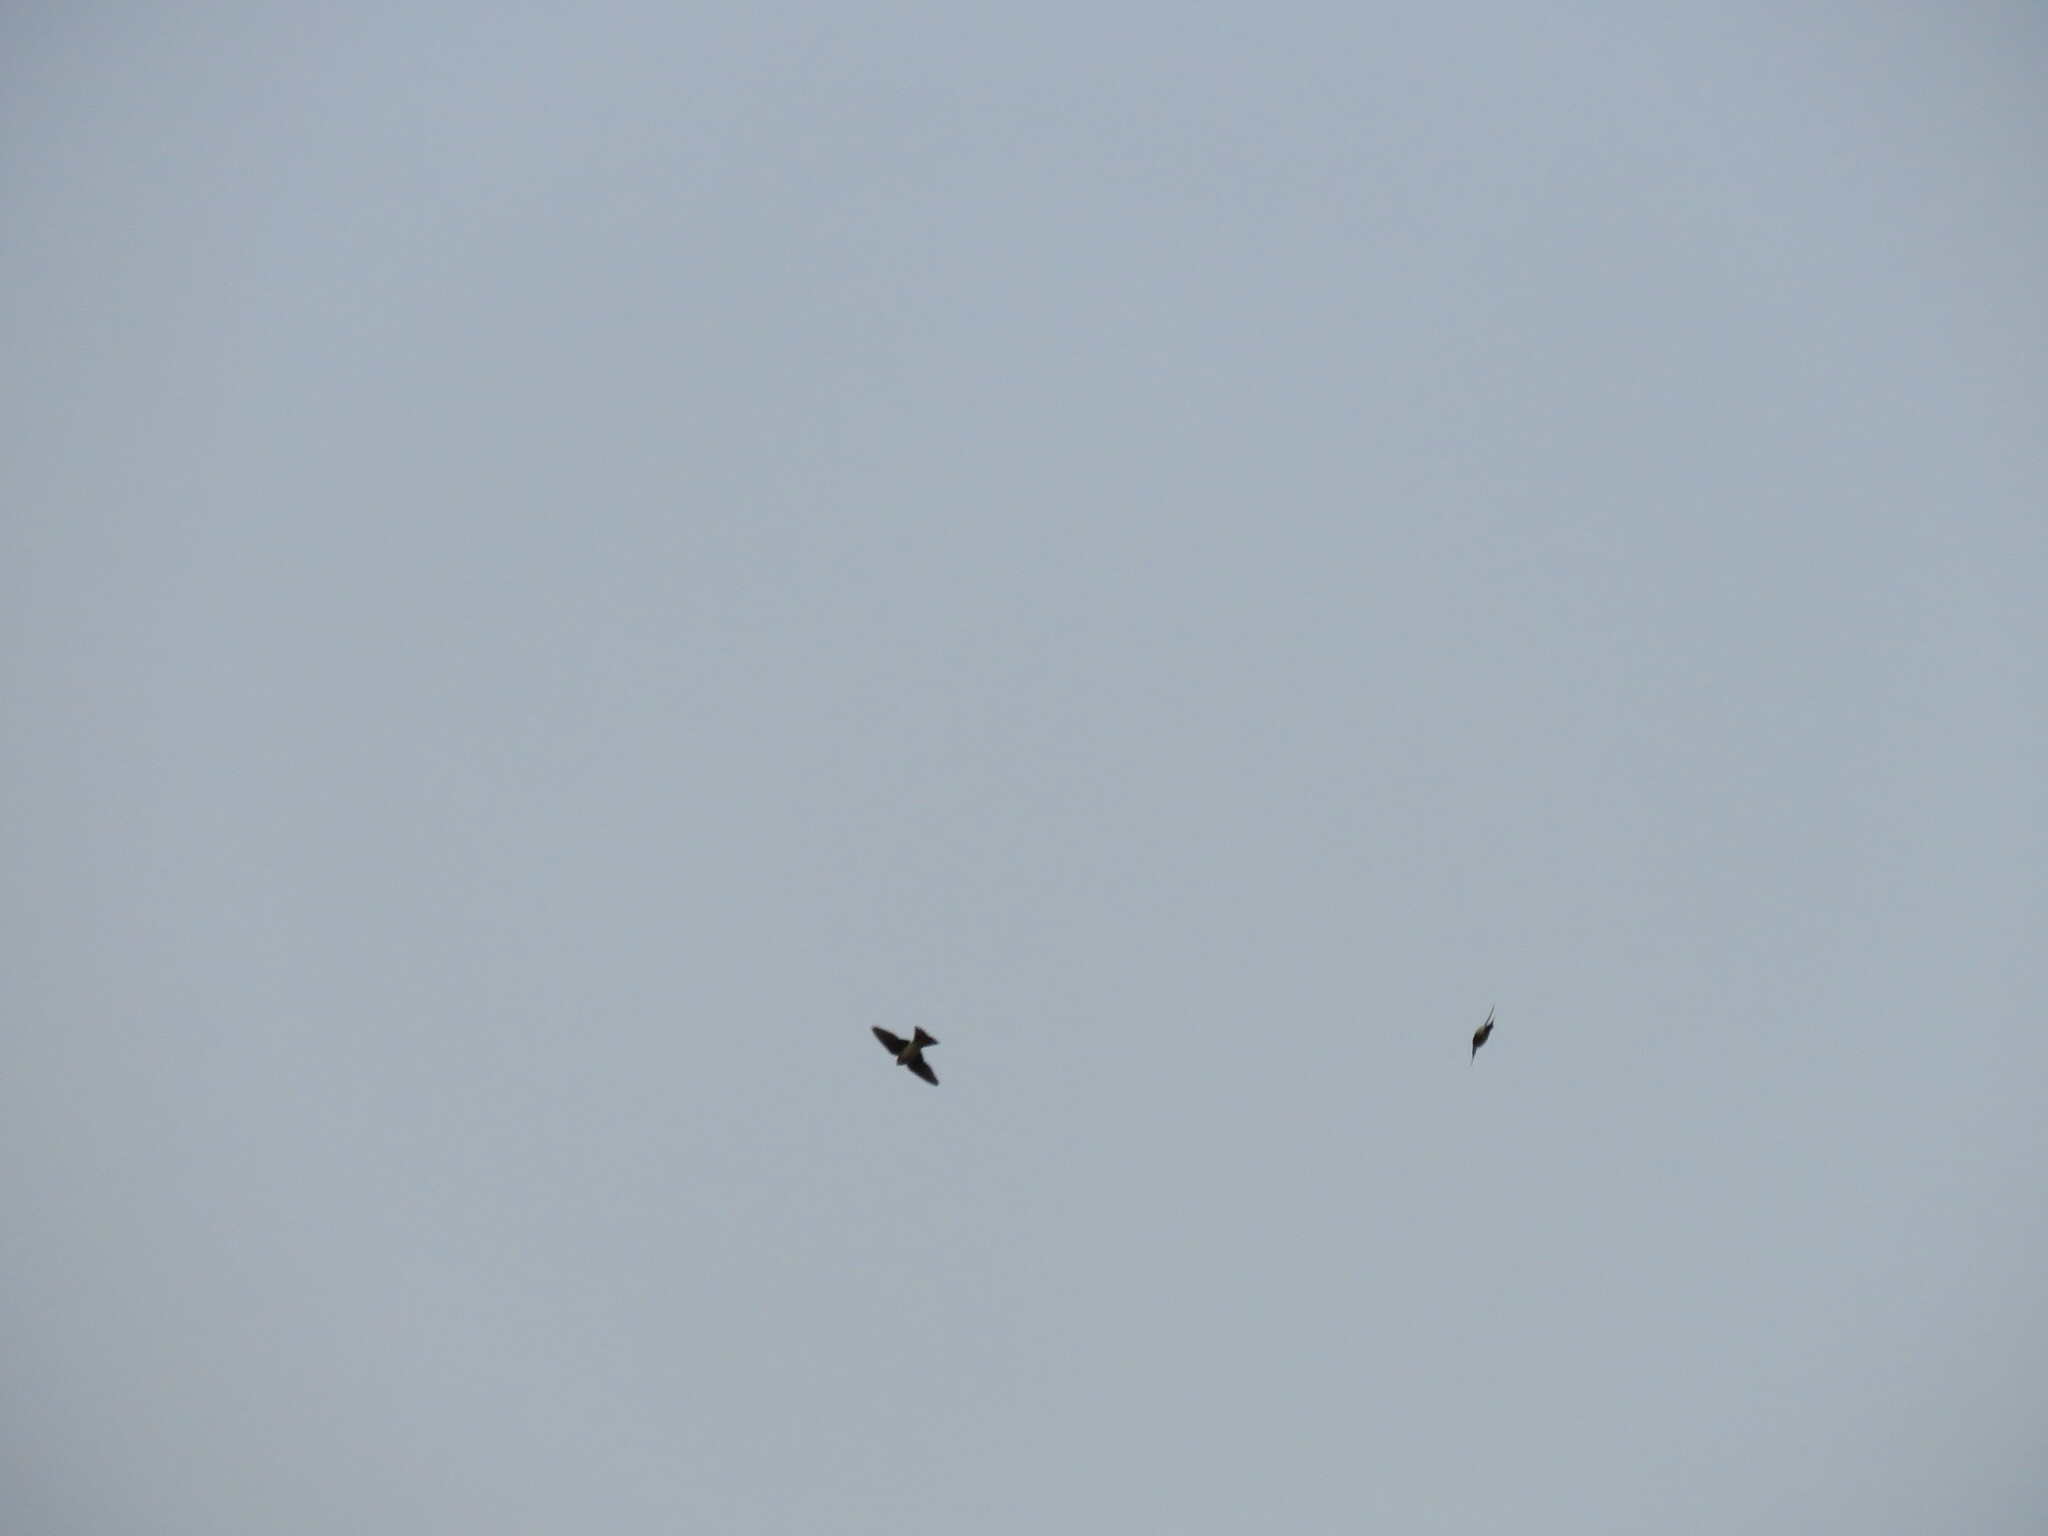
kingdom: Animalia
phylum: Chordata
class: Aves
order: Passeriformes
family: Hirundinidae
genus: Delichon
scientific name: Delichon urbicum
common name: Common house martin
